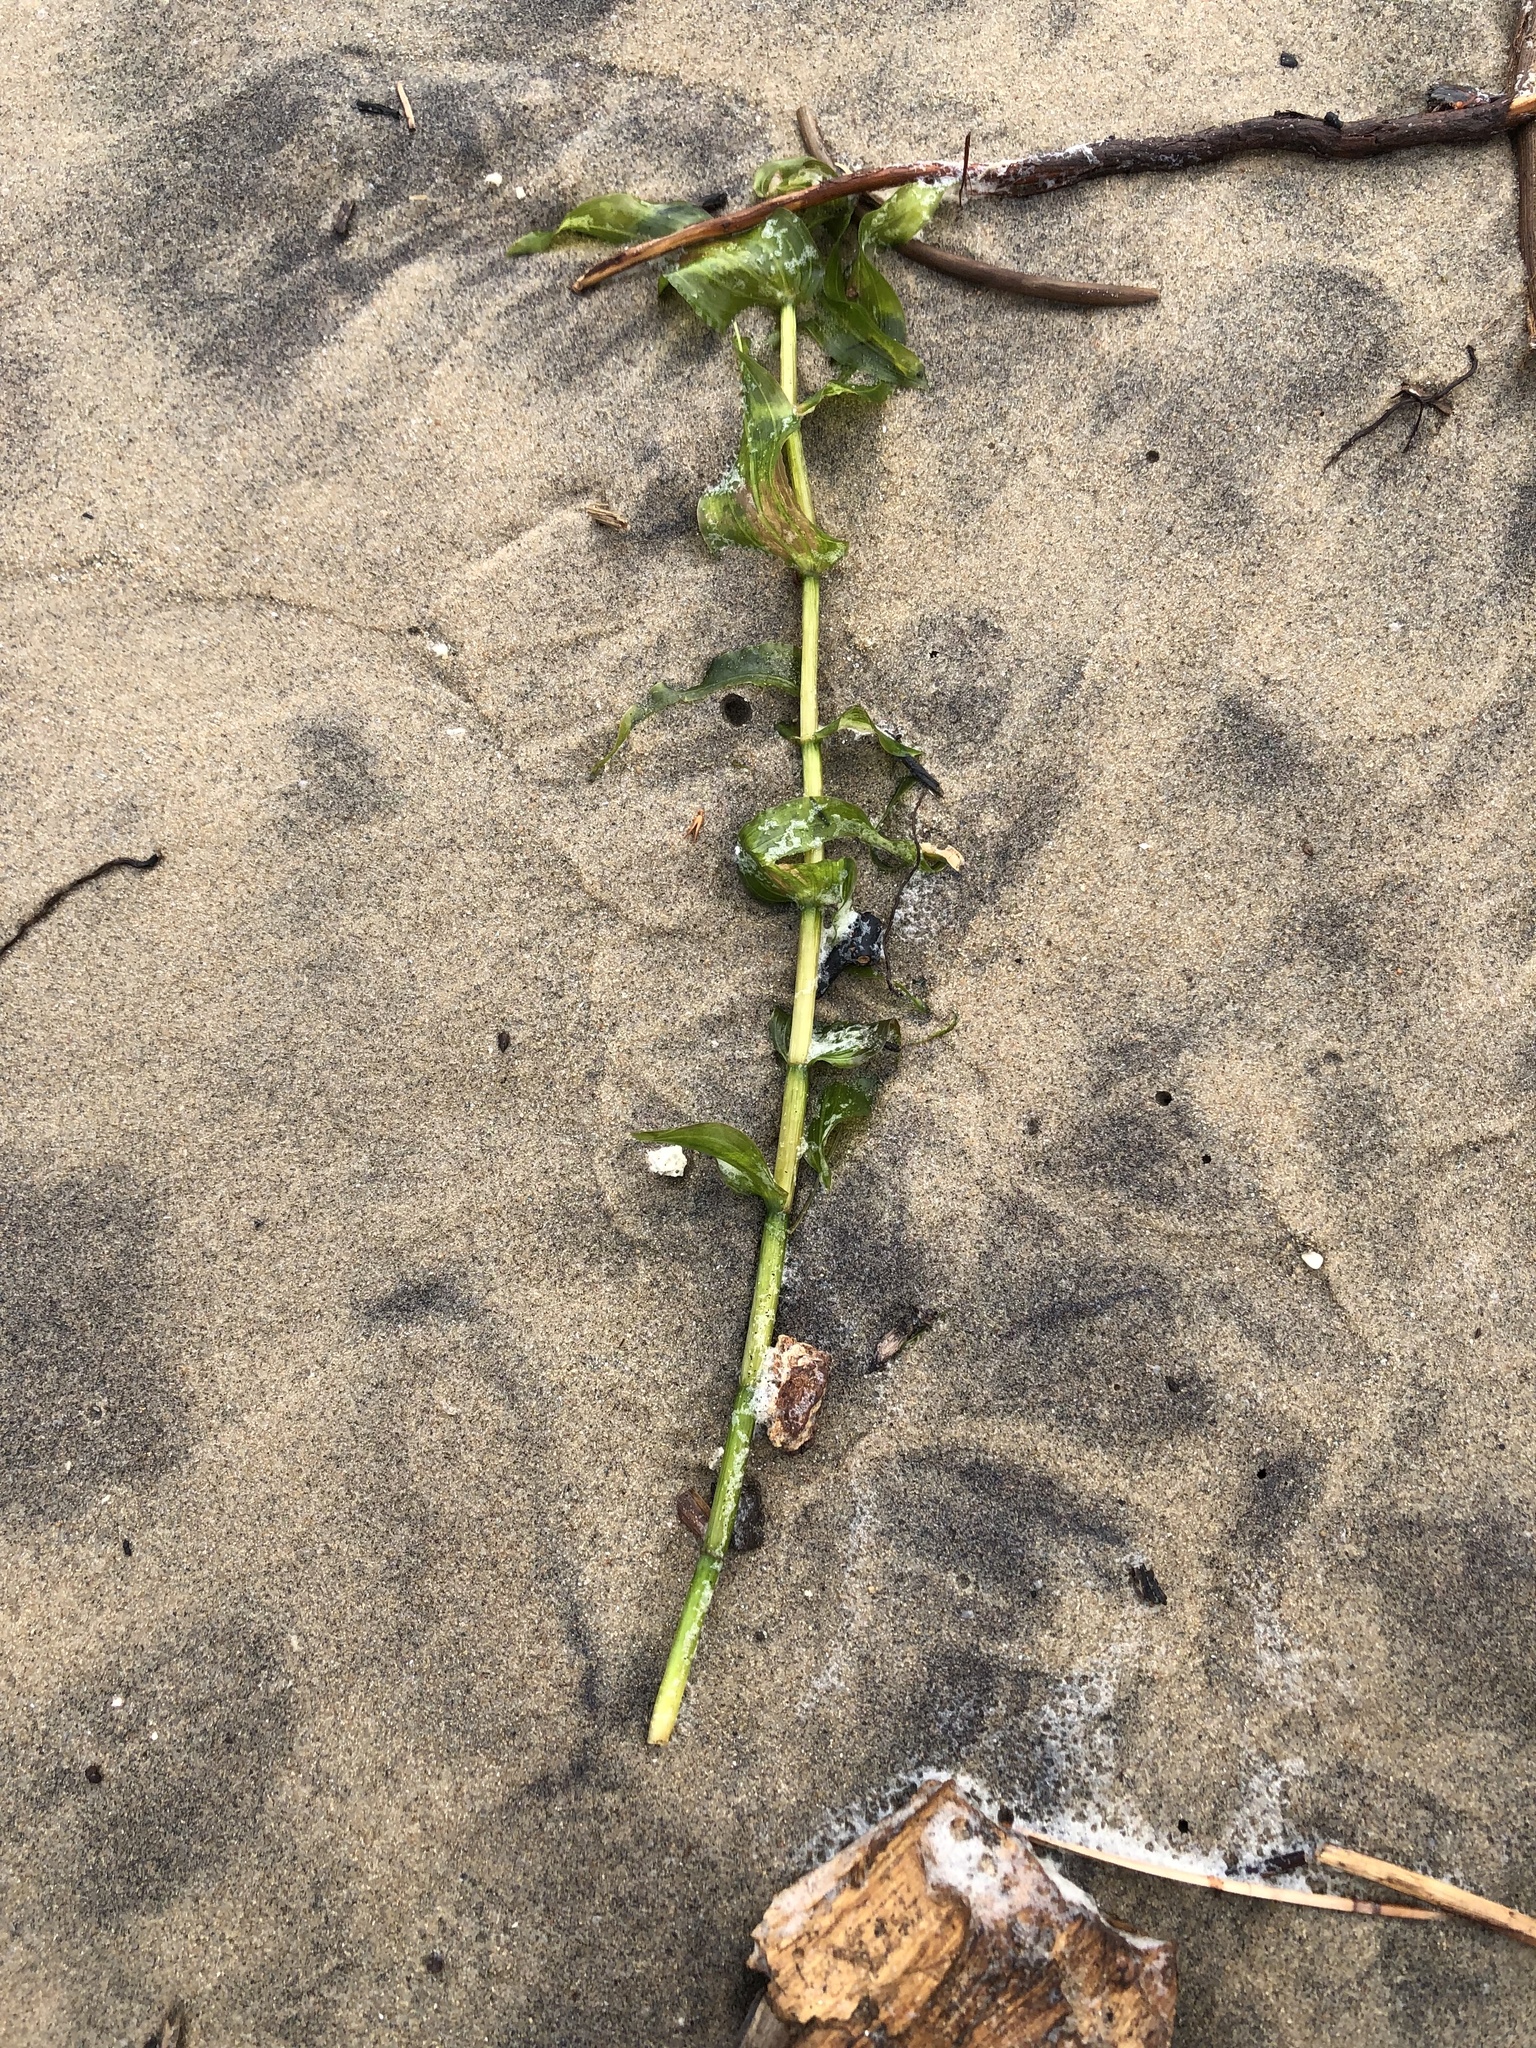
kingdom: Plantae
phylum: Tracheophyta
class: Liliopsida
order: Alismatales
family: Potamogetonaceae
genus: Potamogeton
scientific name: Potamogeton richardsonii
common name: Richardson's pondweed
